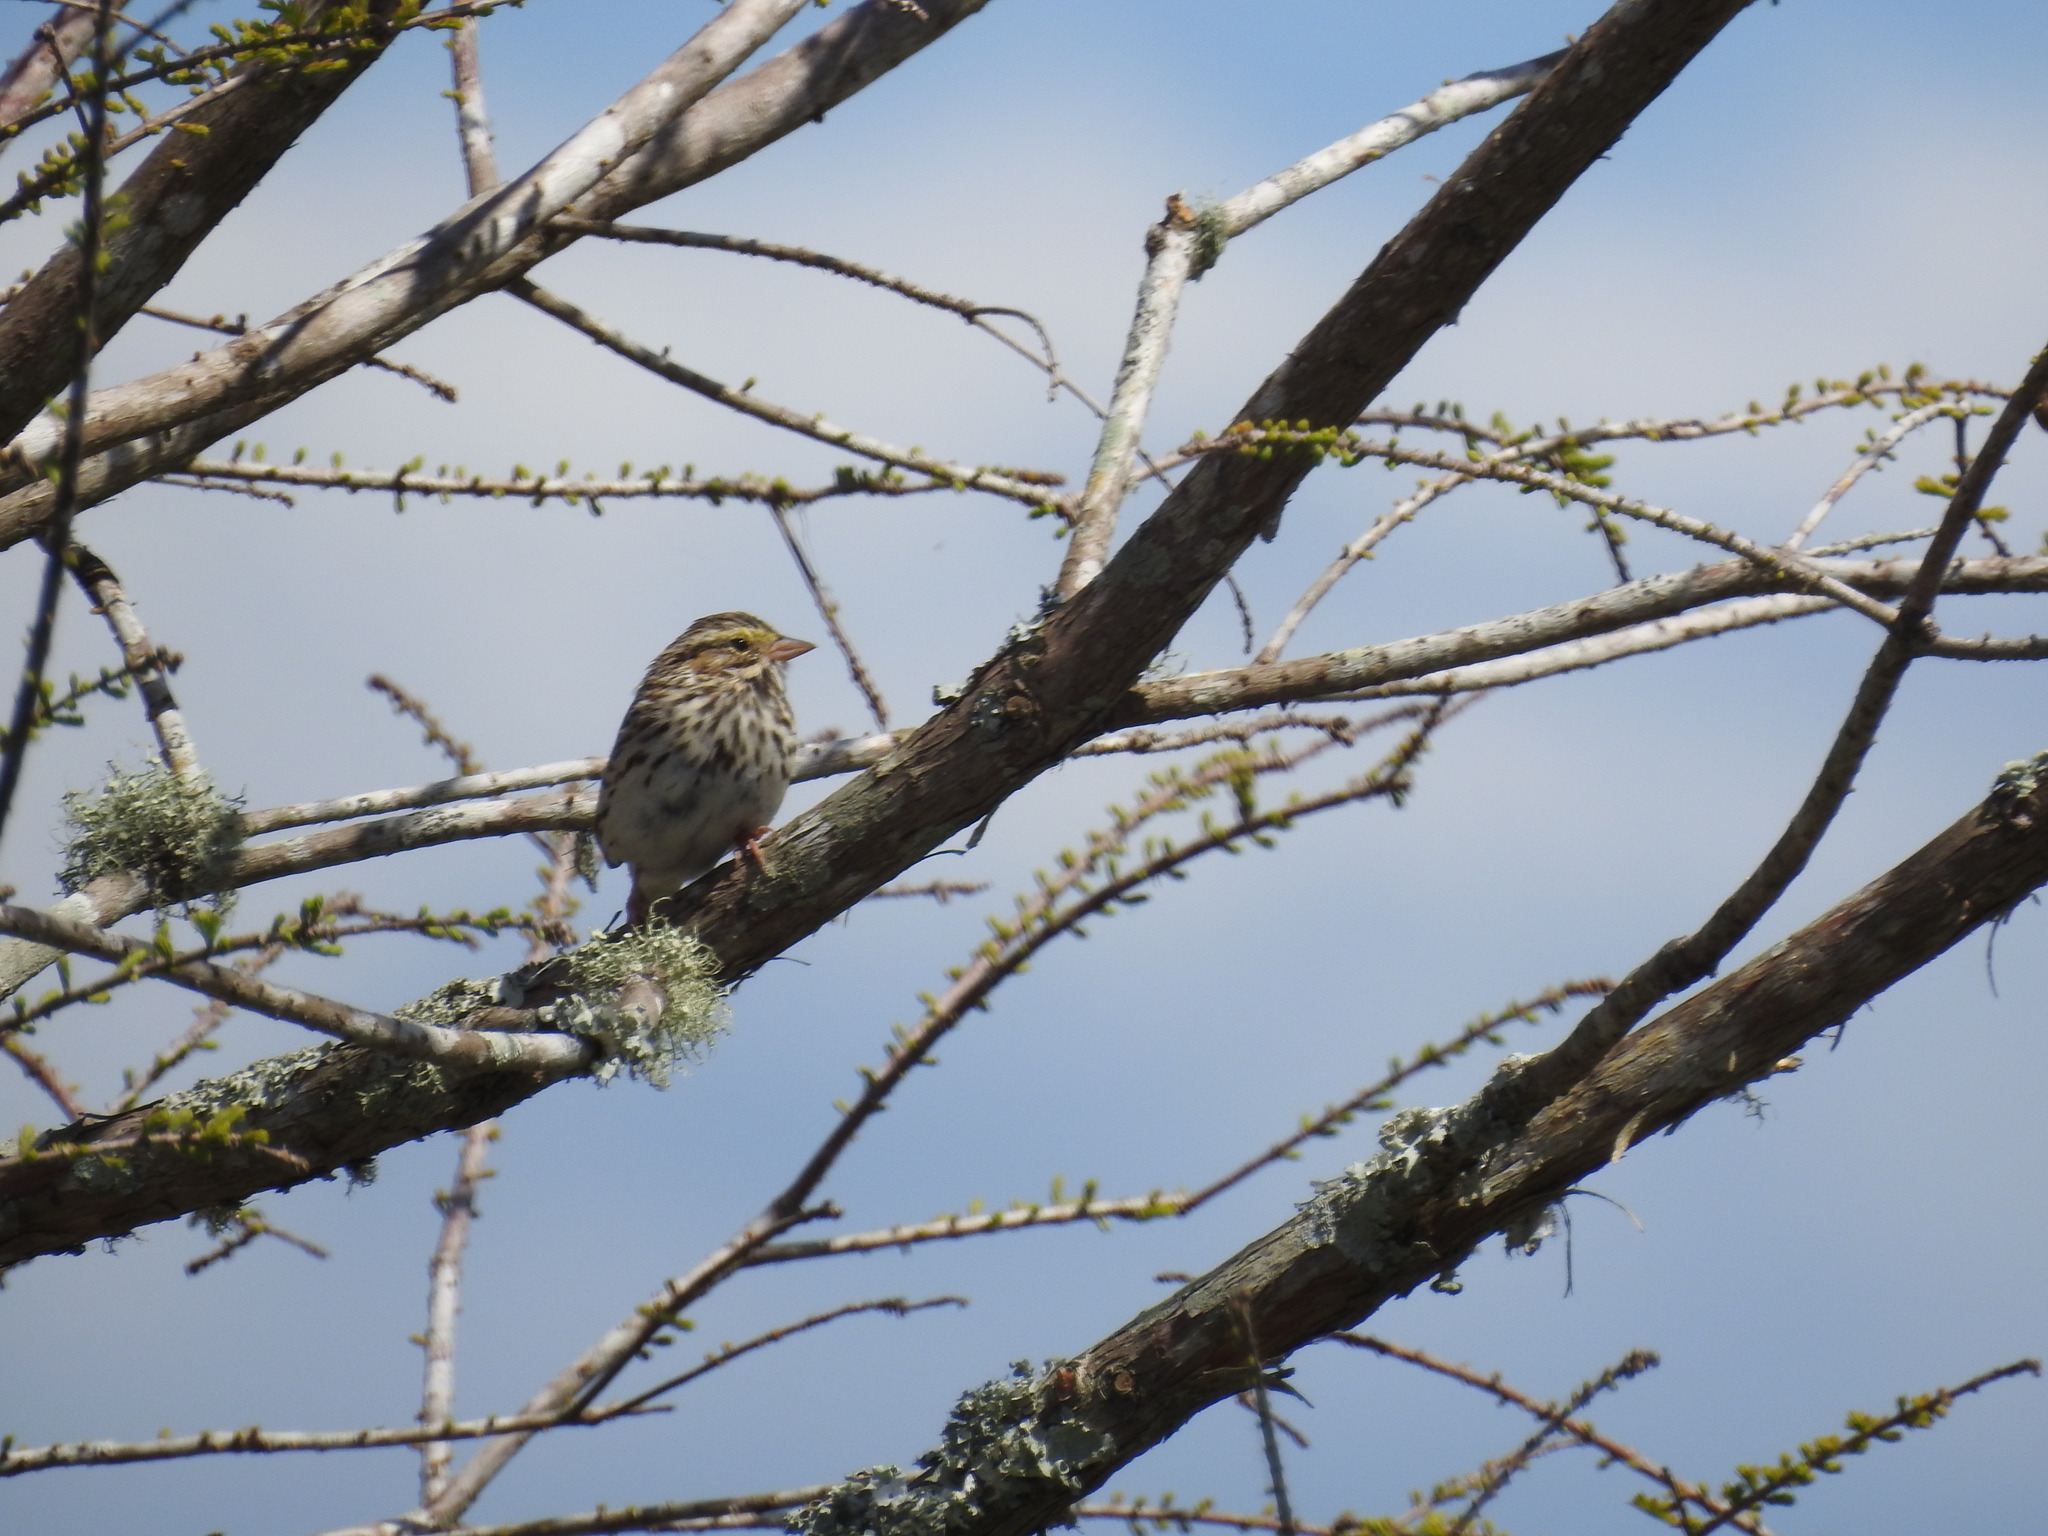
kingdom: Animalia
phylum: Chordata
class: Aves
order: Passeriformes
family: Passerellidae
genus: Passerculus
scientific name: Passerculus sandwichensis
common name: Savannah sparrow
